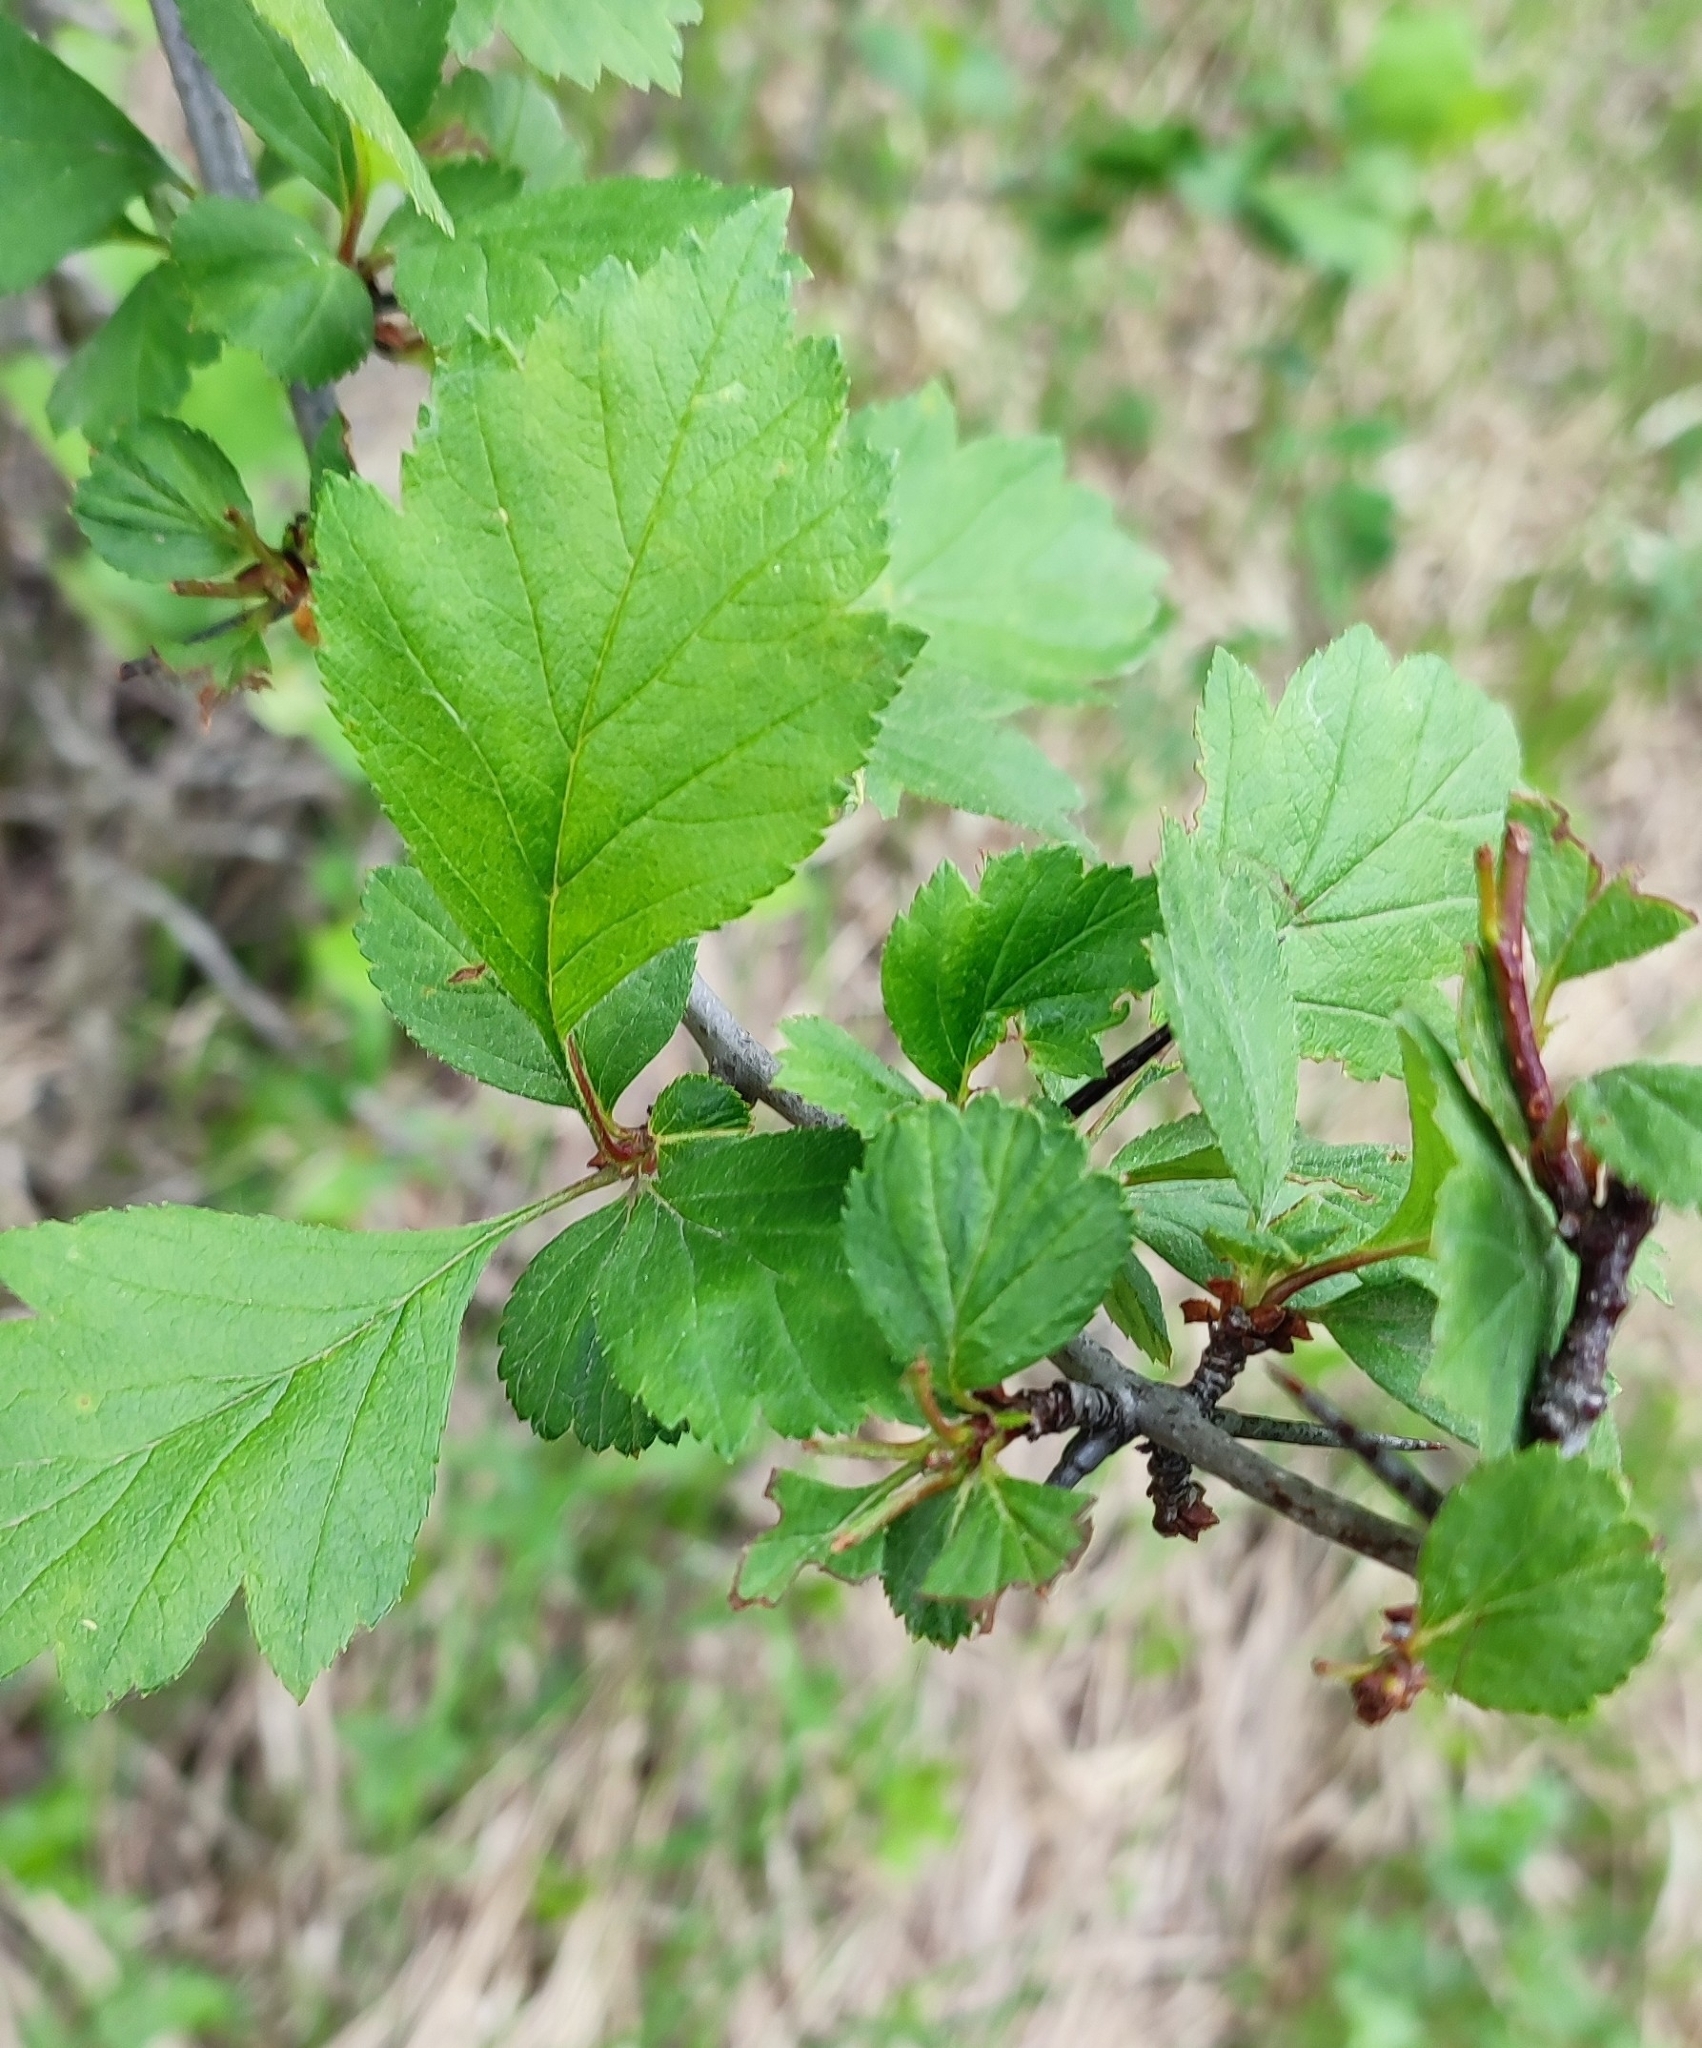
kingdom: Plantae
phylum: Tracheophyta
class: Magnoliopsida
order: Rosales
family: Rosaceae
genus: Crataegus
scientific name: Crataegus sanguinea
